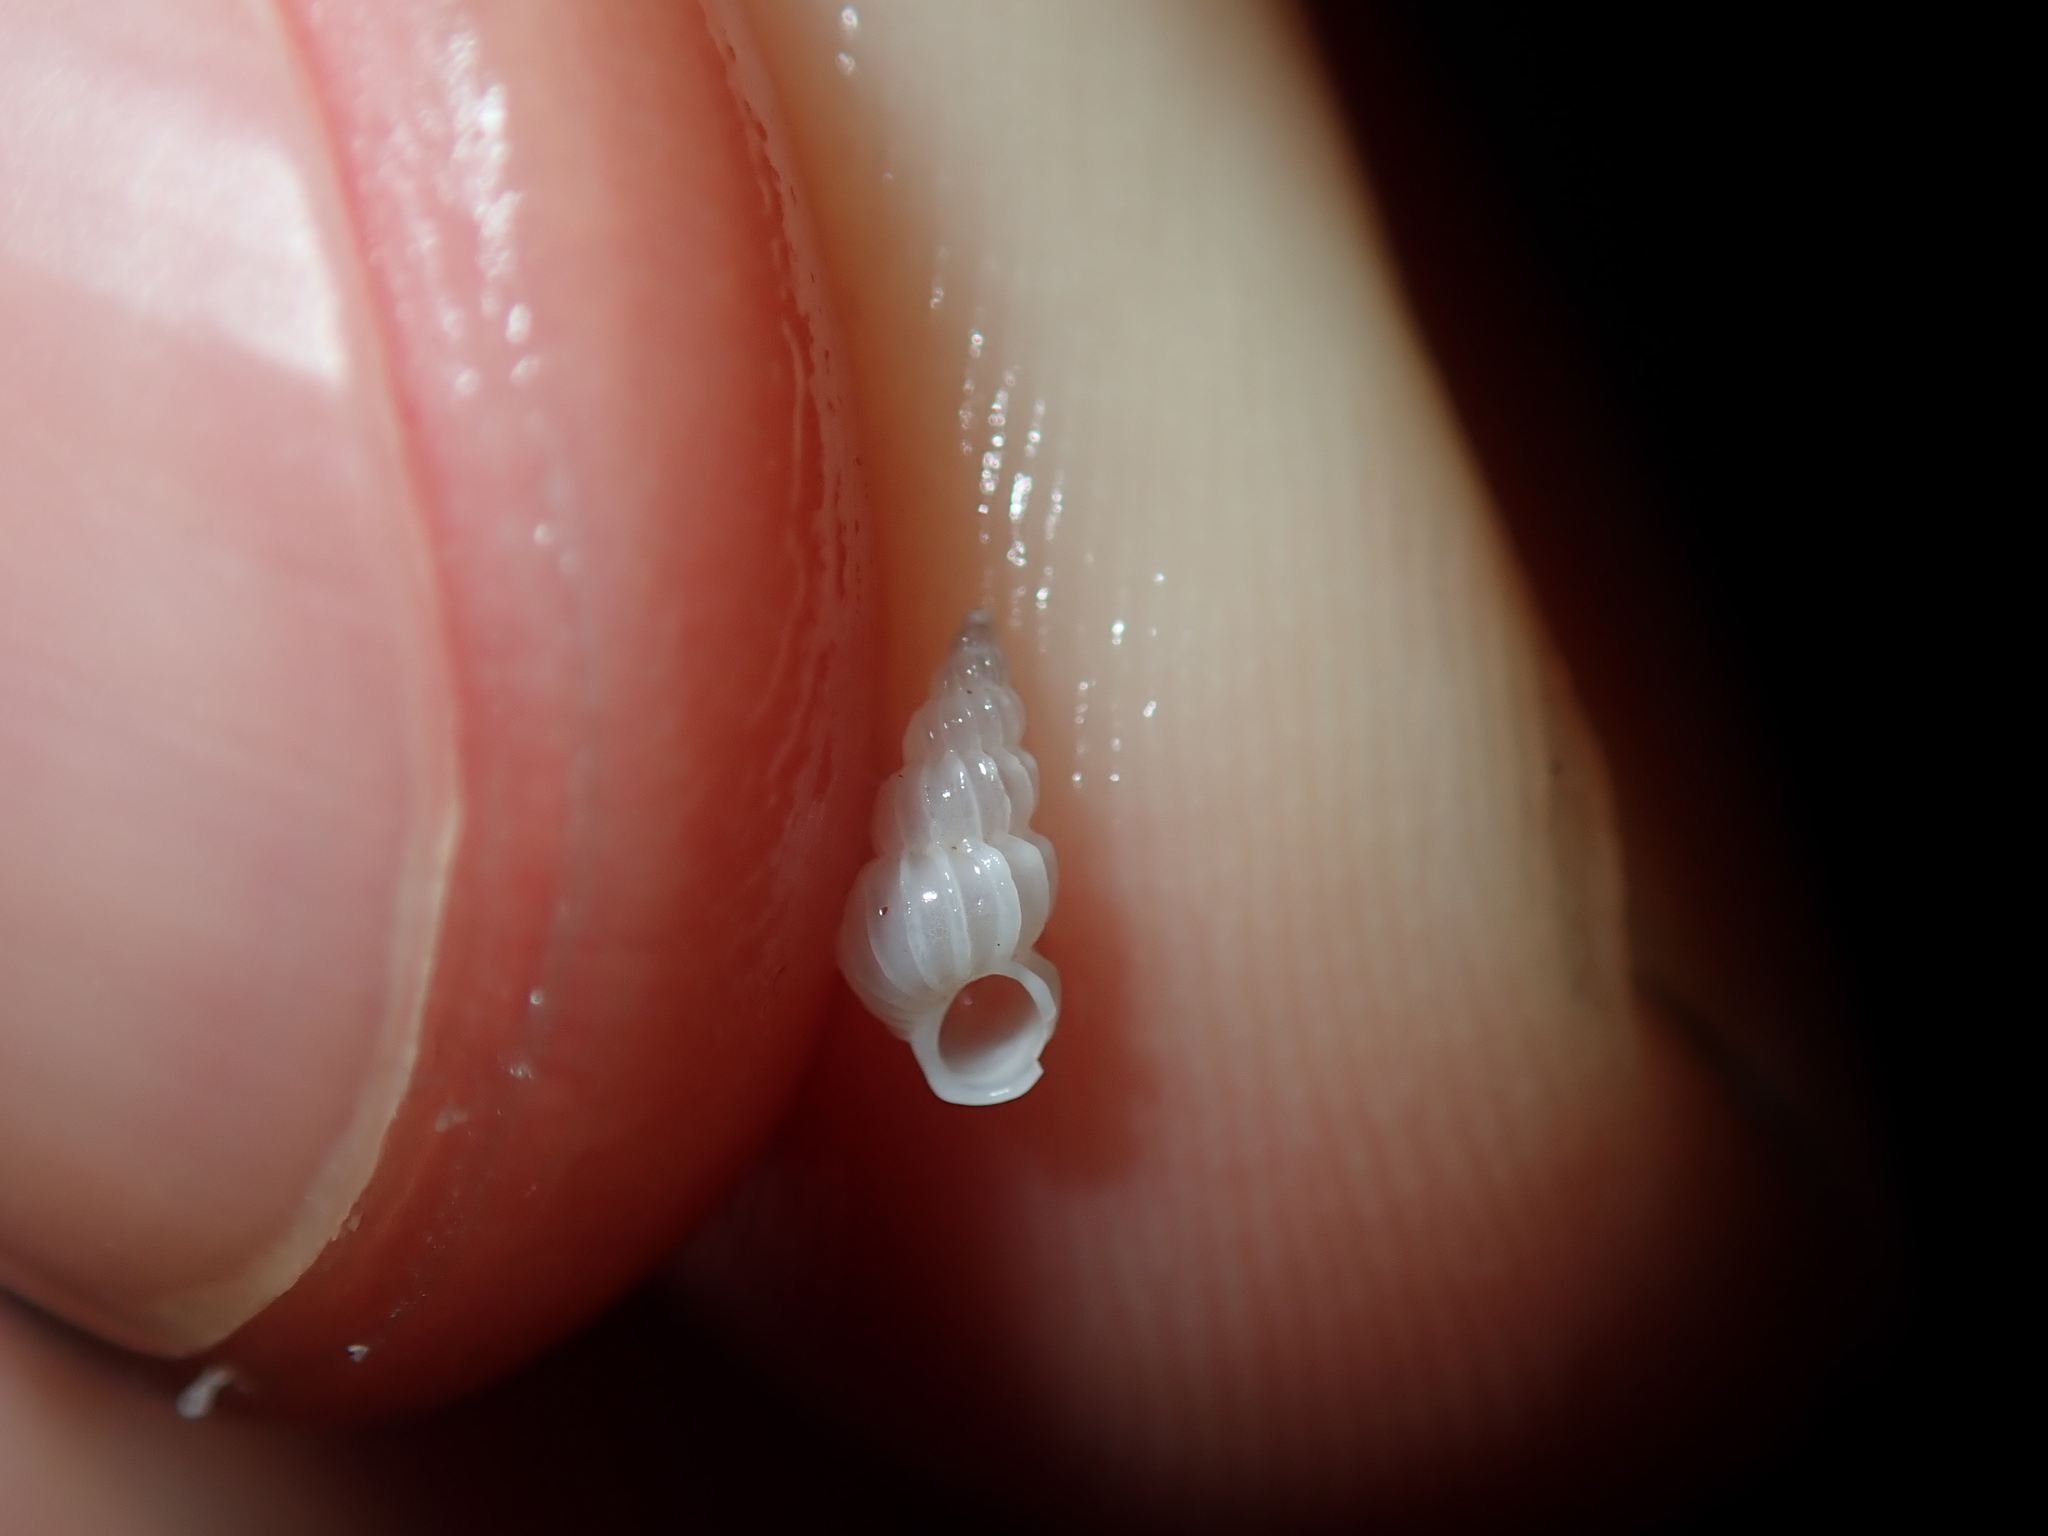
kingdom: Animalia
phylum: Mollusca
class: Gastropoda
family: Epitoniidae
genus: Gyroscala
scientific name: Gyroscala commutata
